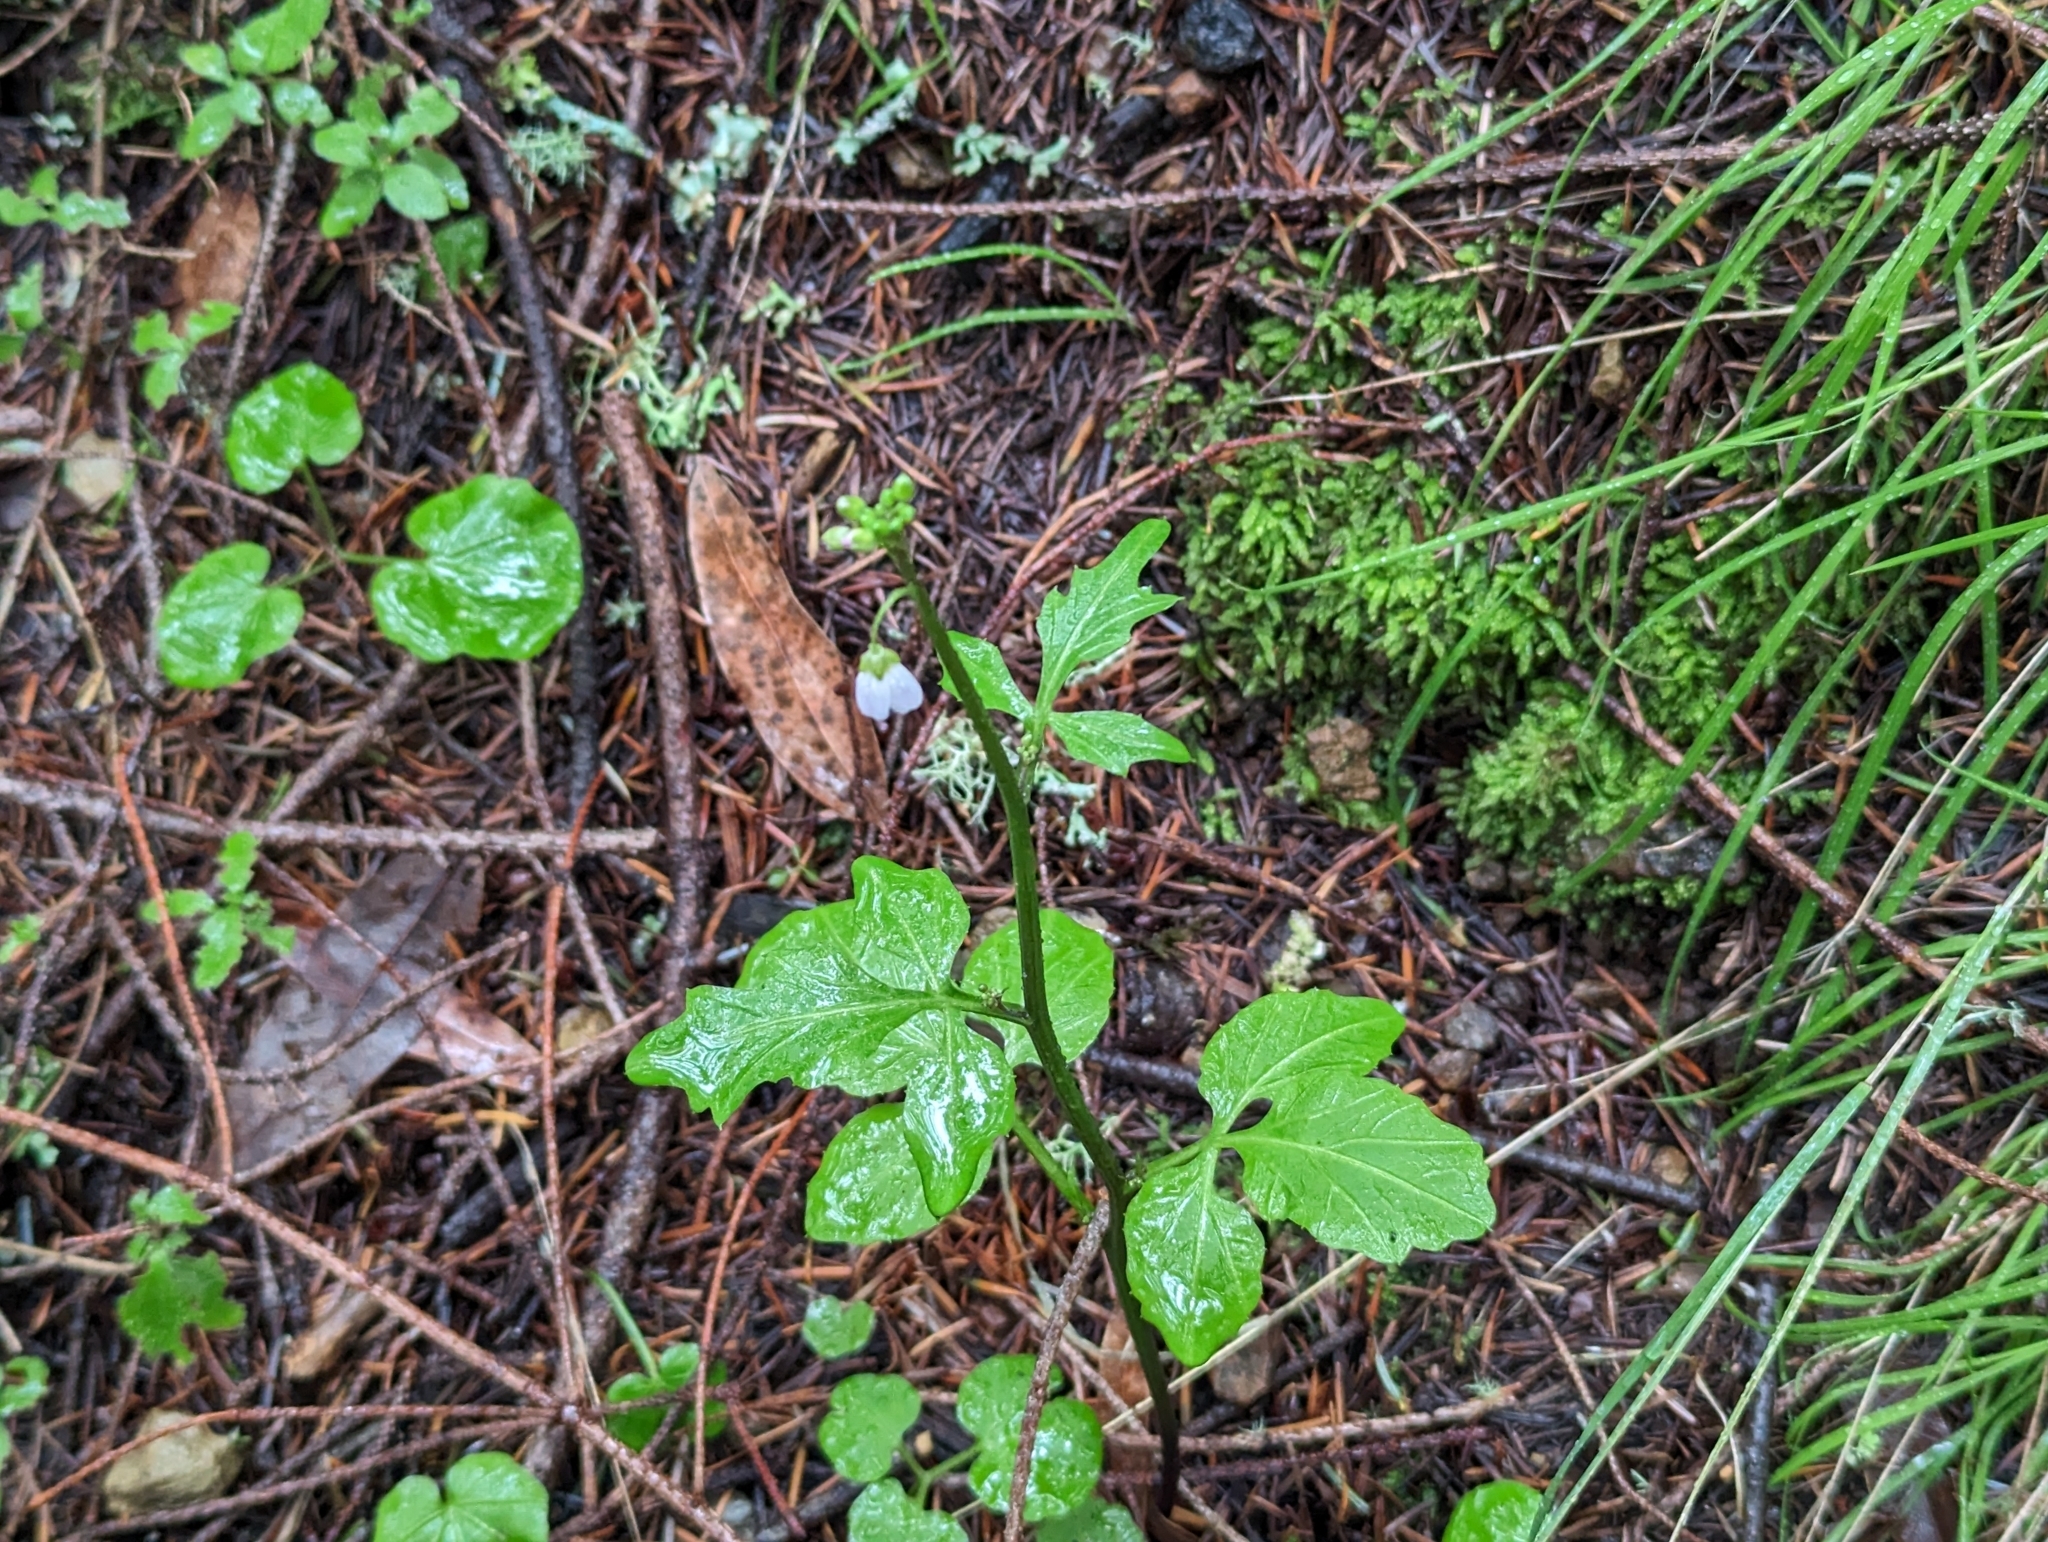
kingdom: Plantae
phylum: Tracheophyta
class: Magnoliopsida
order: Brassicales
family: Brassicaceae
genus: Cardamine
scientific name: Cardamine californica
